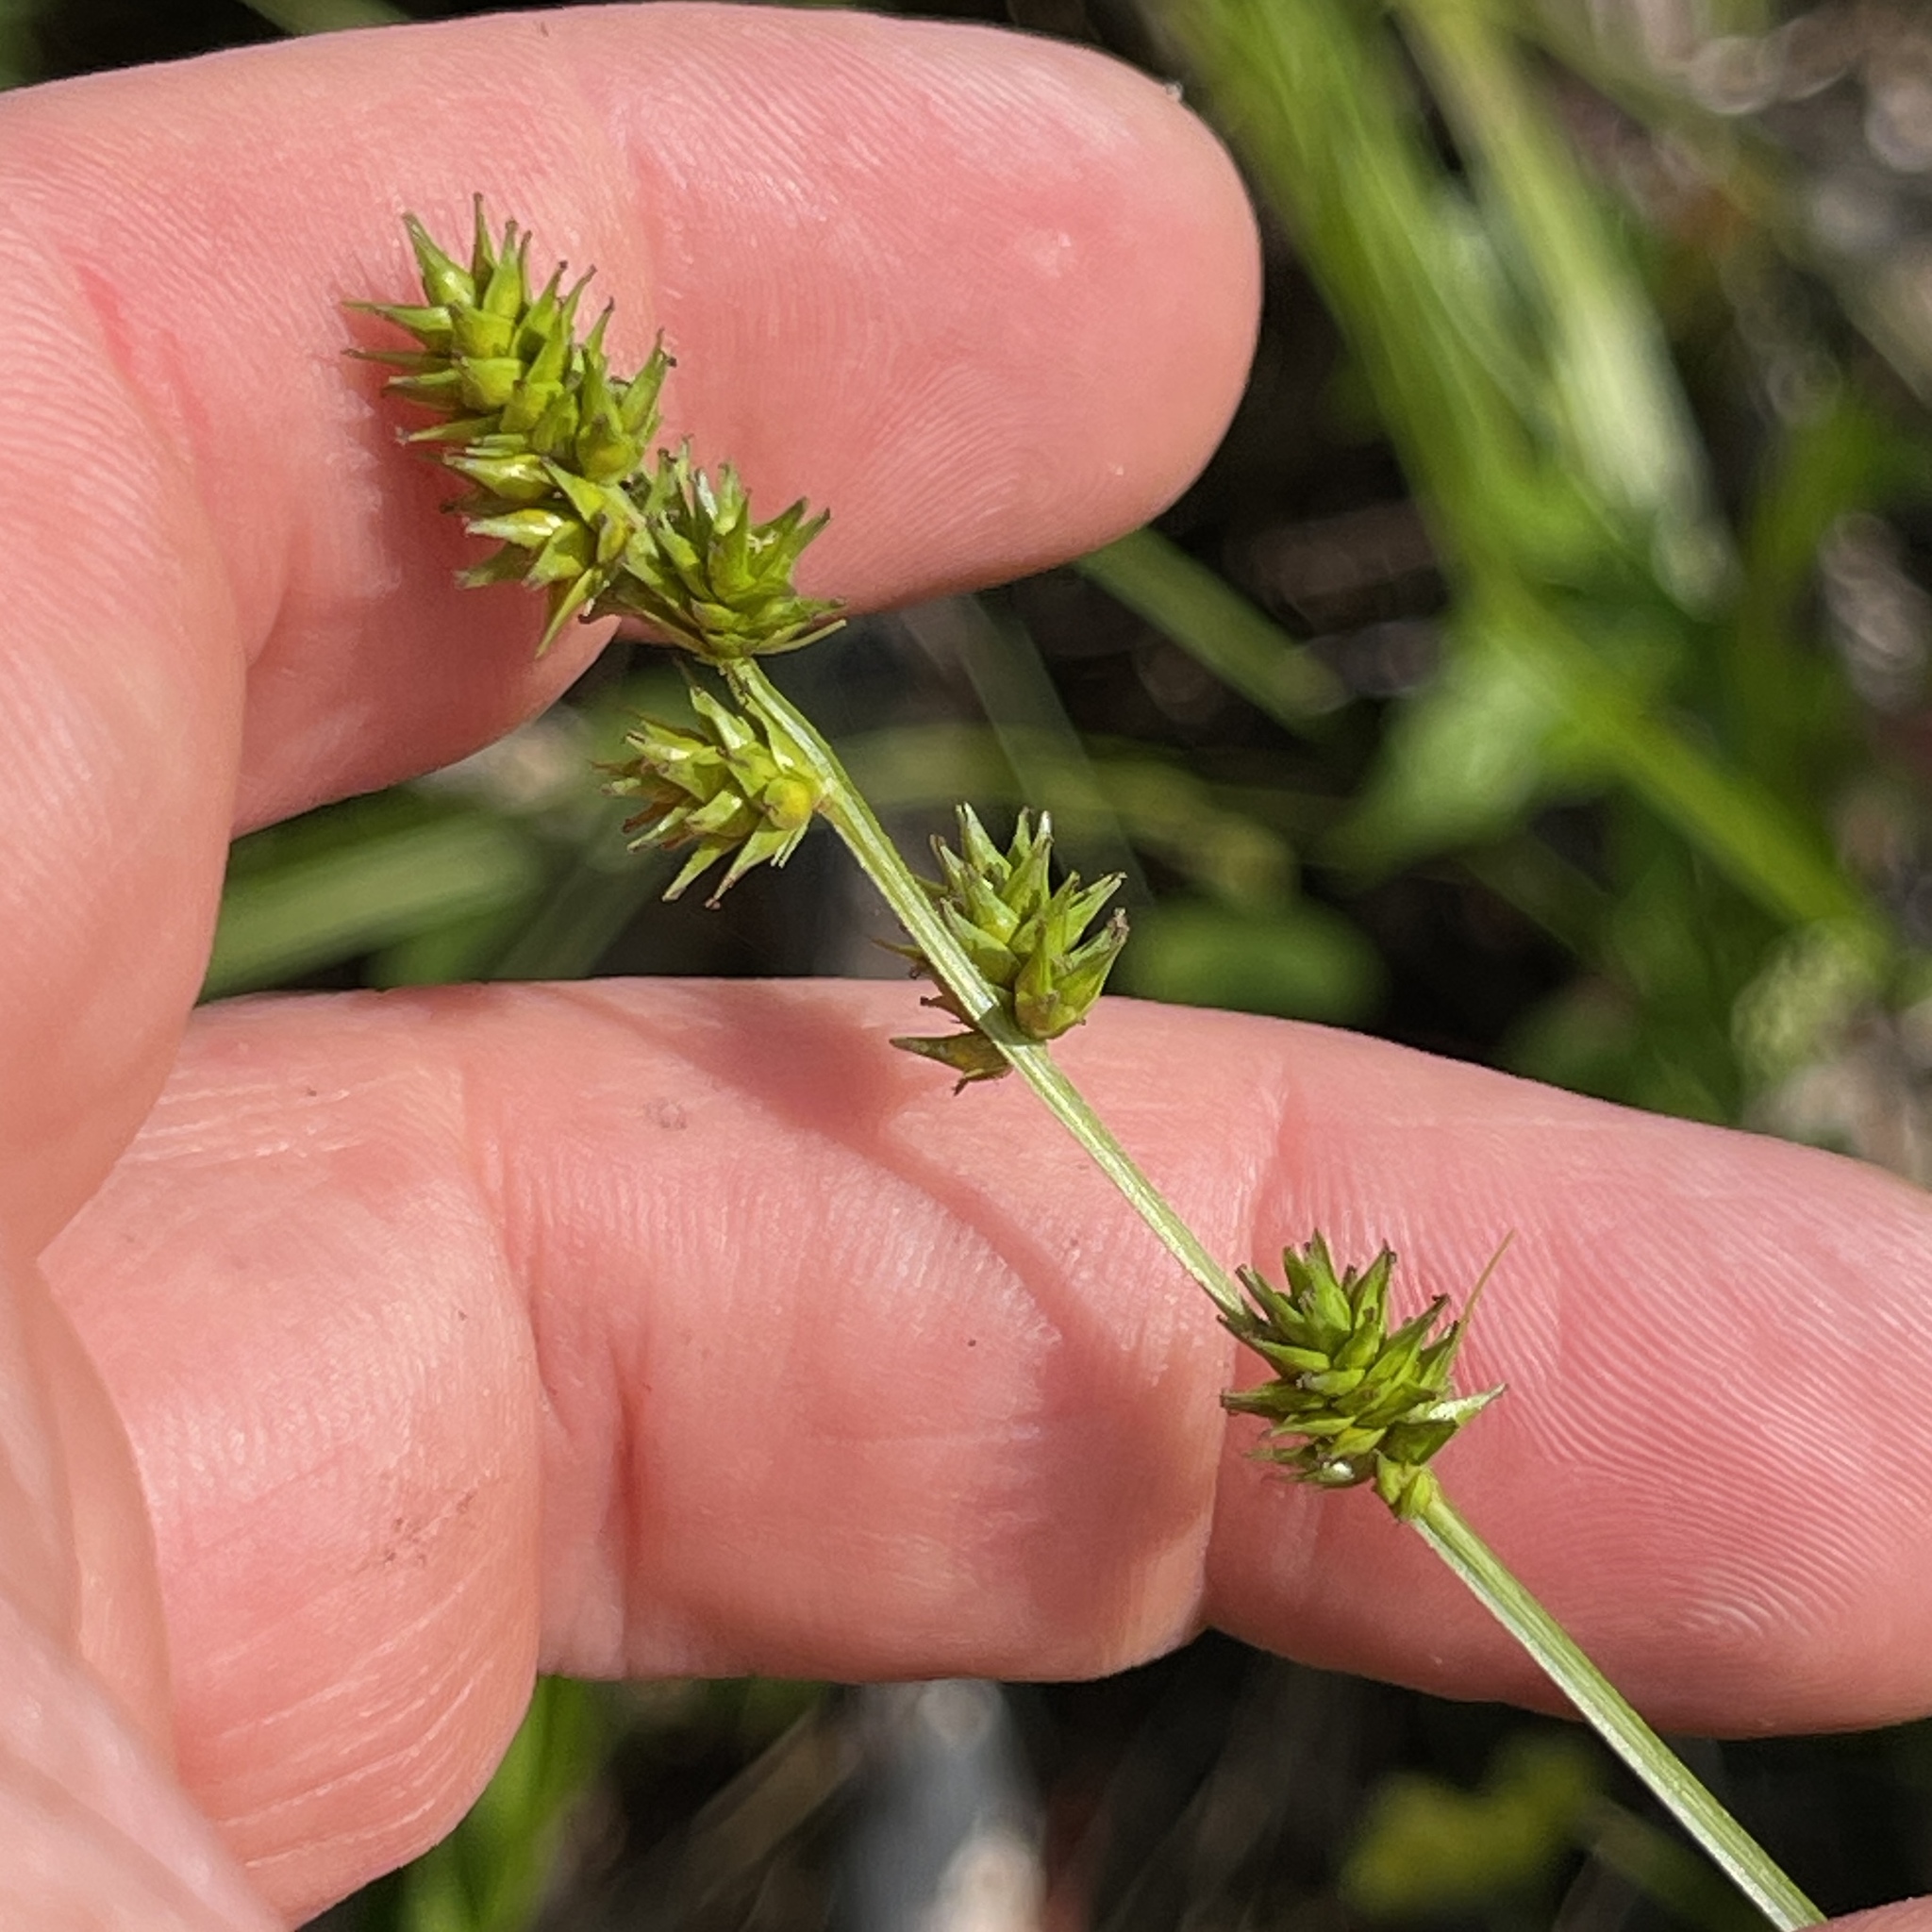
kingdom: Plantae
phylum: Tracheophyta
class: Liliopsida
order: Poales
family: Cyperaceae
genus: Carex
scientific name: Carex sparganioides
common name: Burreed sedge
